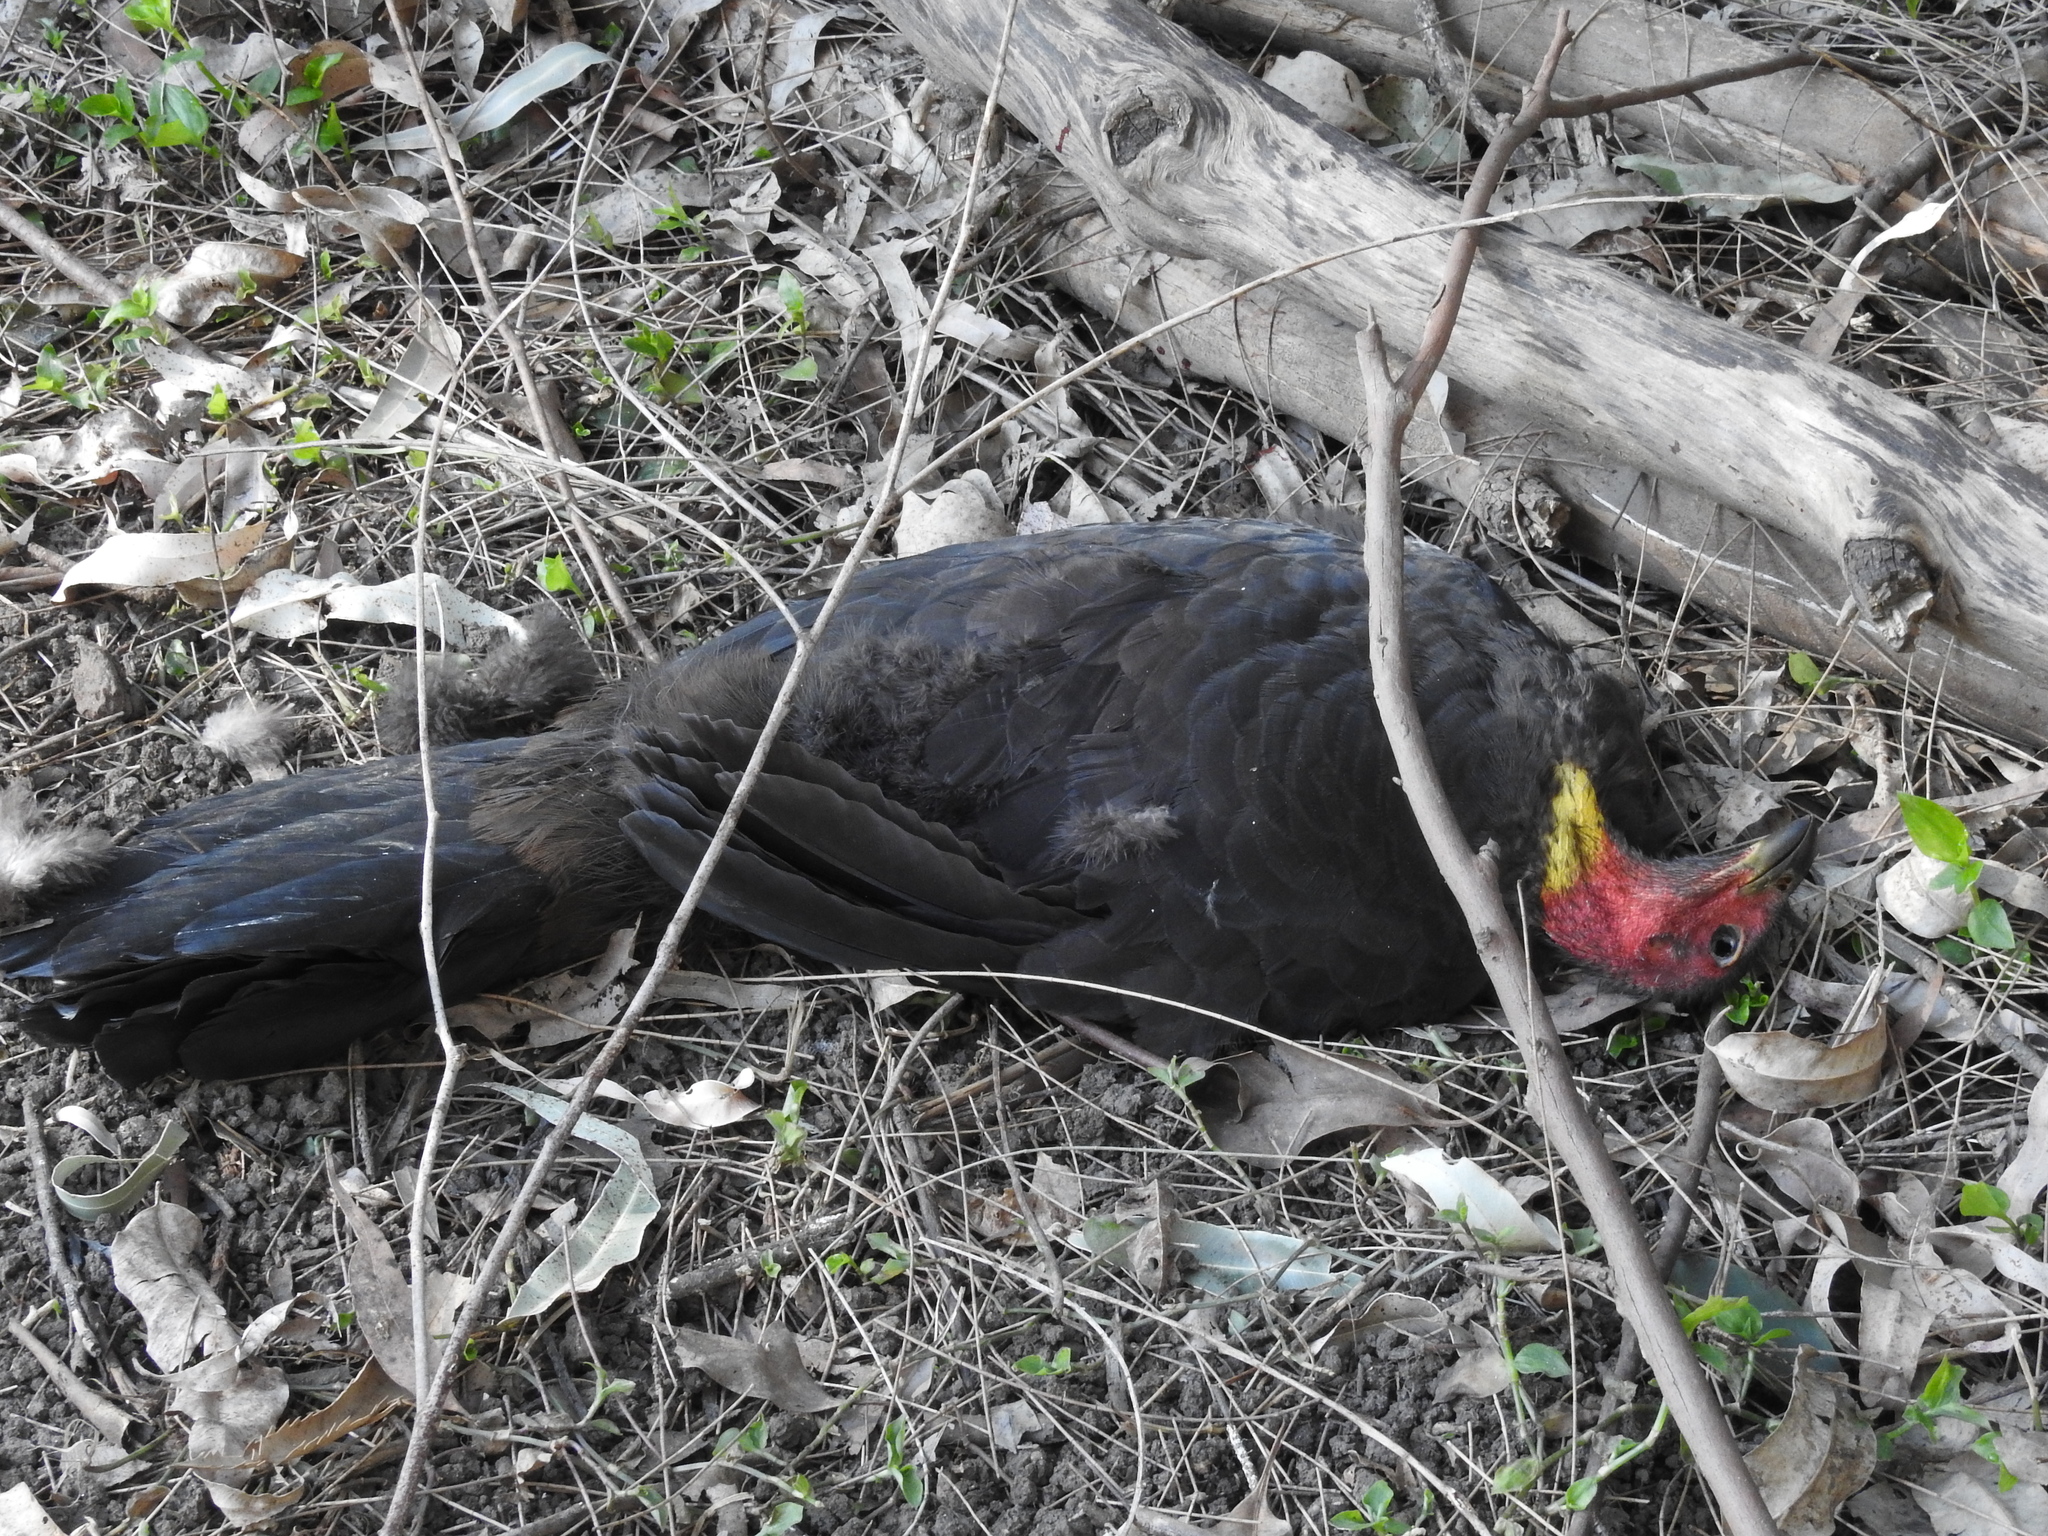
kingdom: Animalia
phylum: Chordata
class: Aves
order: Galliformes
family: Megapodiidae
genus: Alectura
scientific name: Alectura lathami
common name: Australian brushturkey
